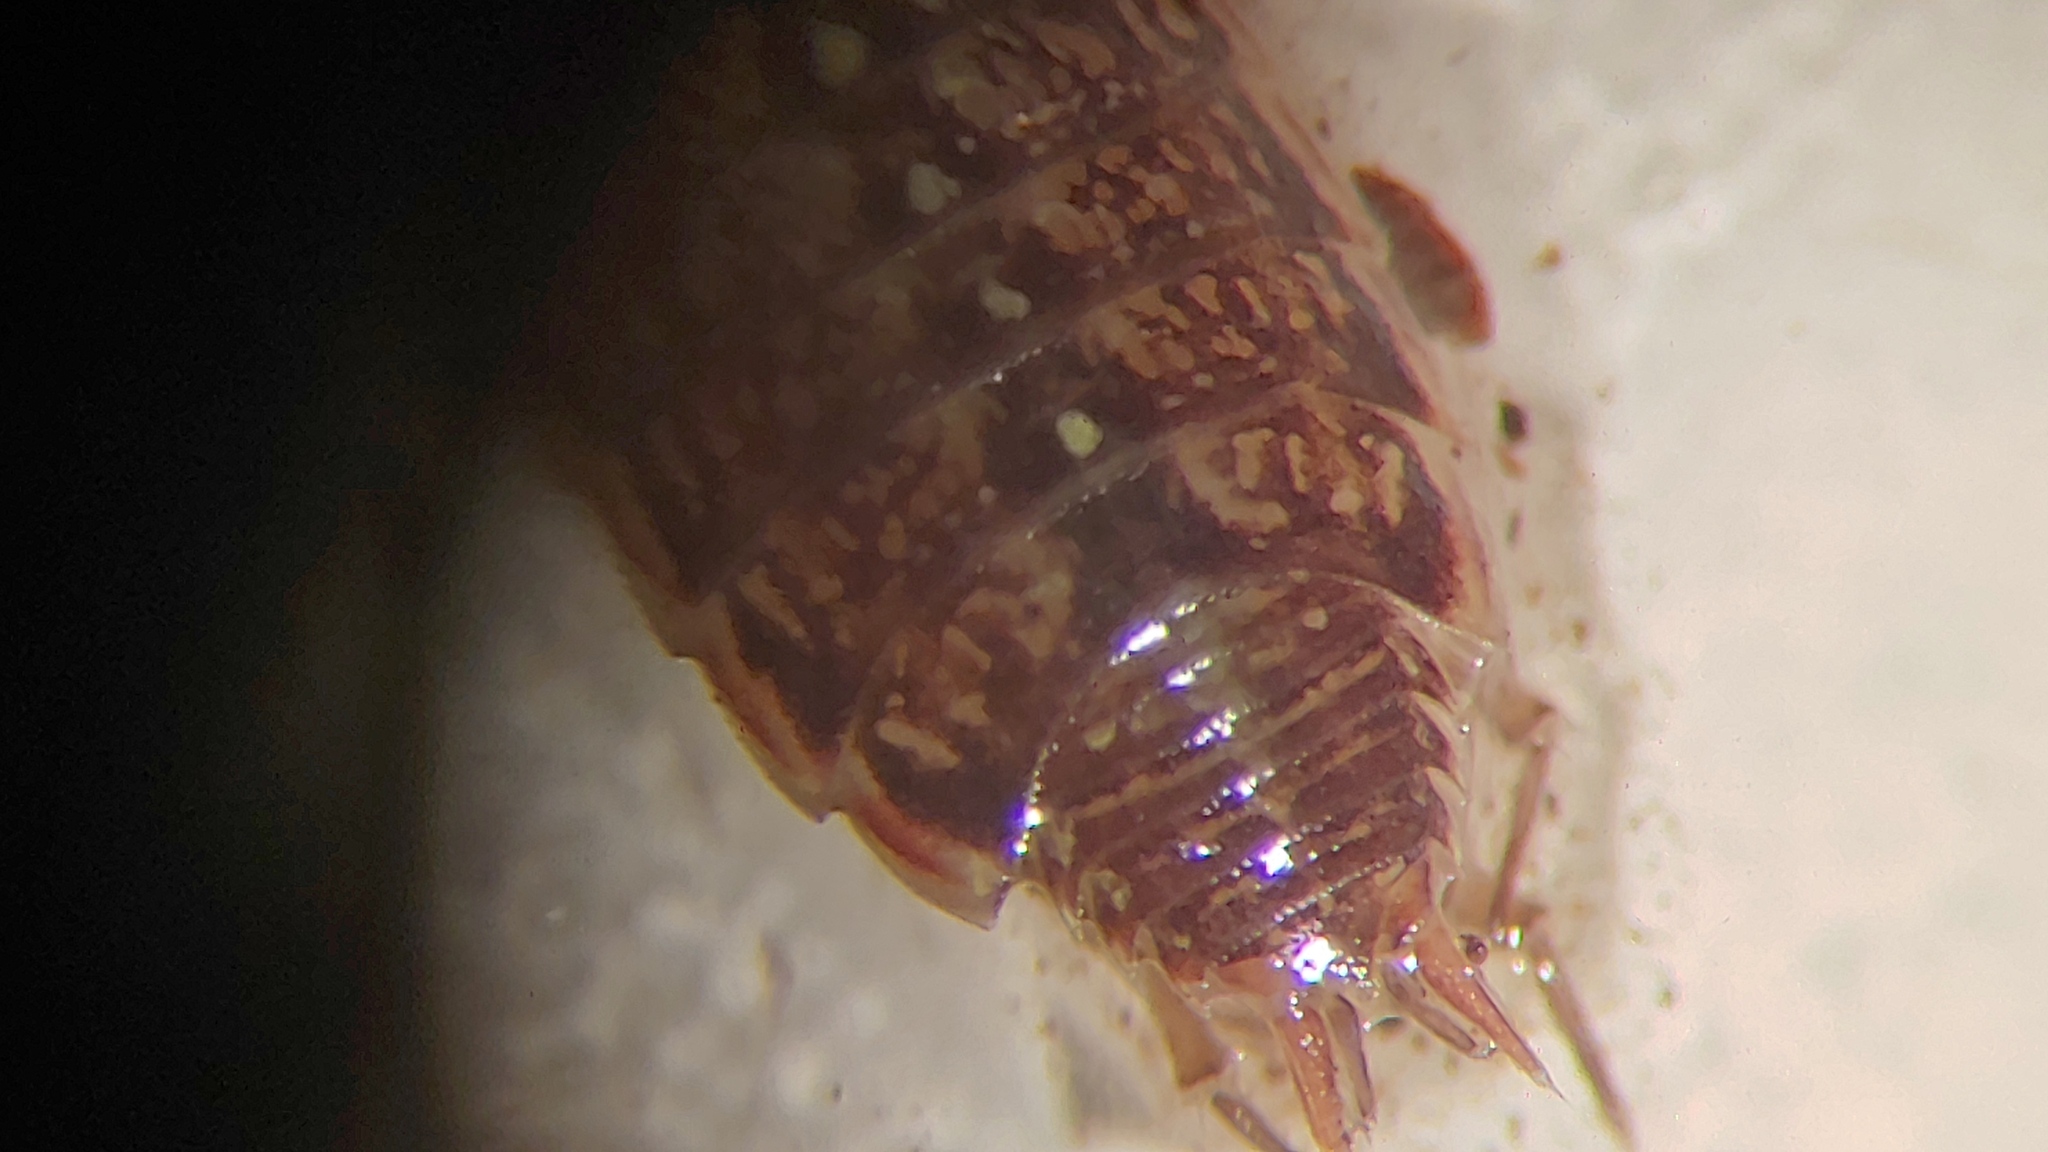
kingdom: Animalia
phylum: Arthropoda
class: Malacostraca
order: Isopoda
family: Philosciidae
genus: Philoscia
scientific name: Philoscia muscorum
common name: Common striped woodlouse
